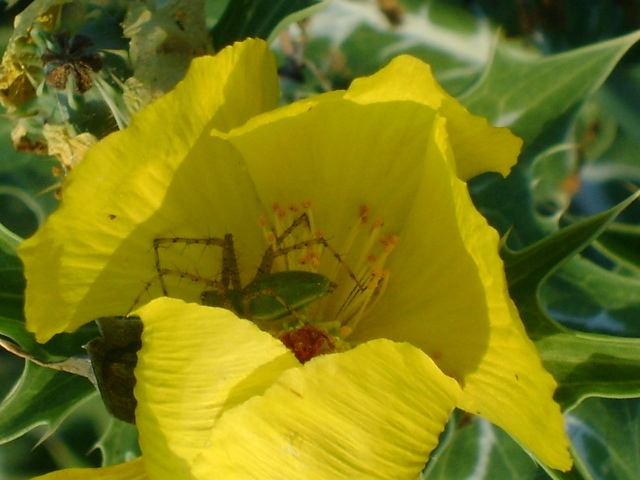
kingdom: Animalia
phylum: Arthropoda
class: Arachnida
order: Araneae
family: Oxyopidae
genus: Peucetia
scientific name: Peucetia viridans
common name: Lynx spiders
